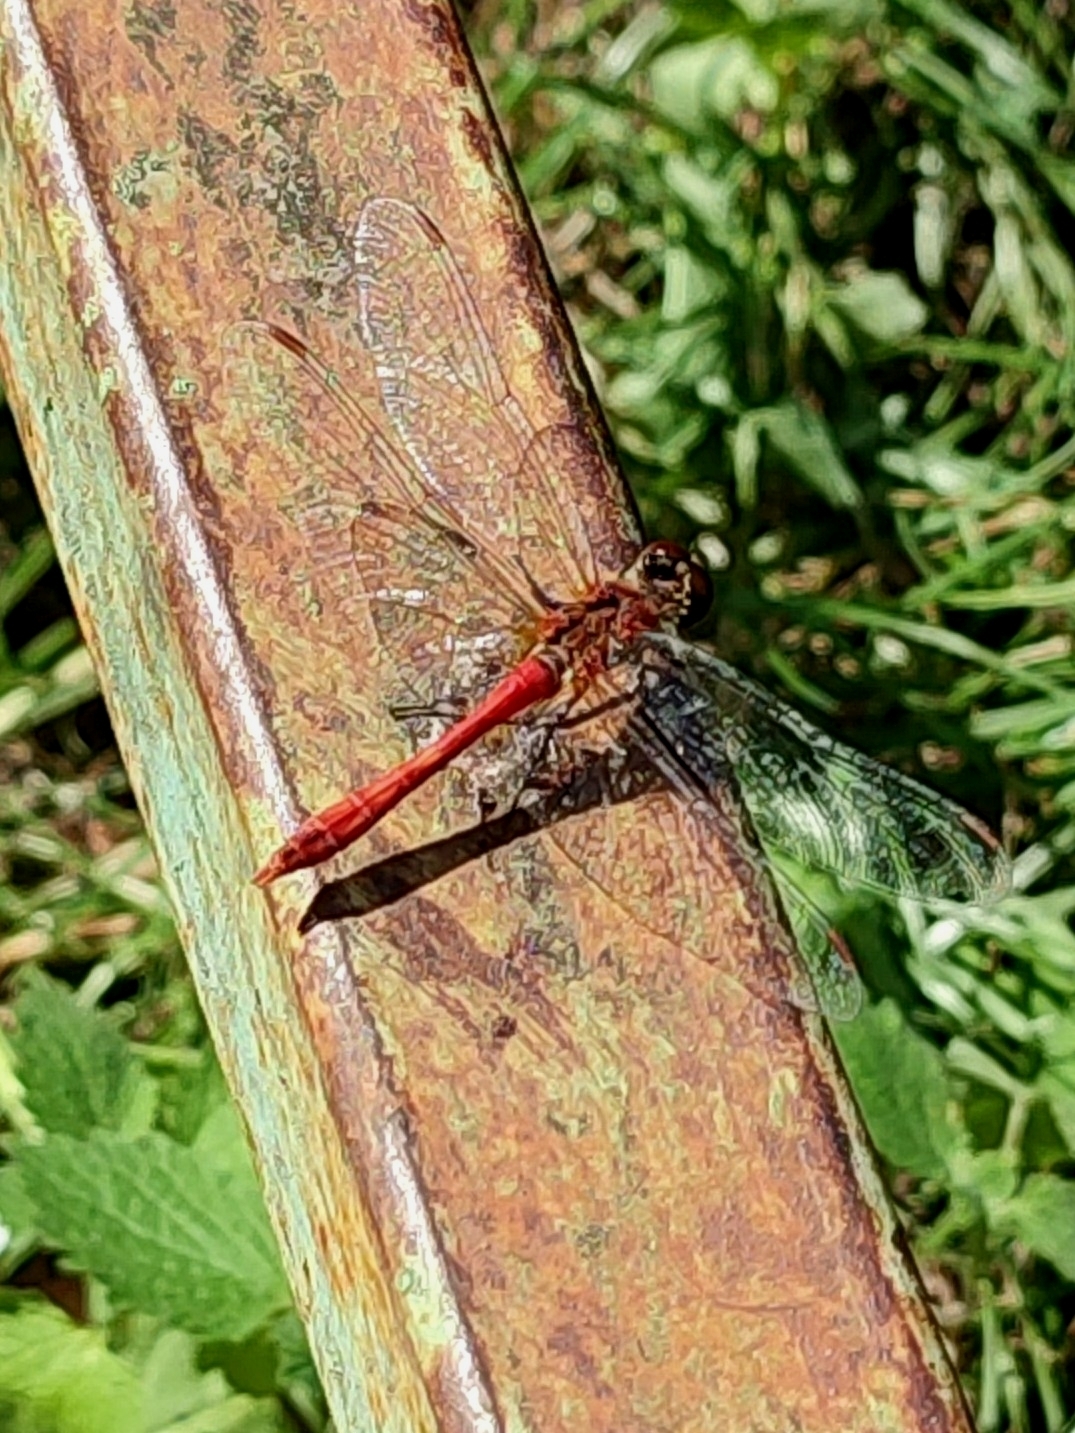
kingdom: Animalia
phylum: Arthropoda
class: Insecta
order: Odonata
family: Libellulidae
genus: Sympetrum
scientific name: Sympetrum sanguineum
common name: Ruddy darter
